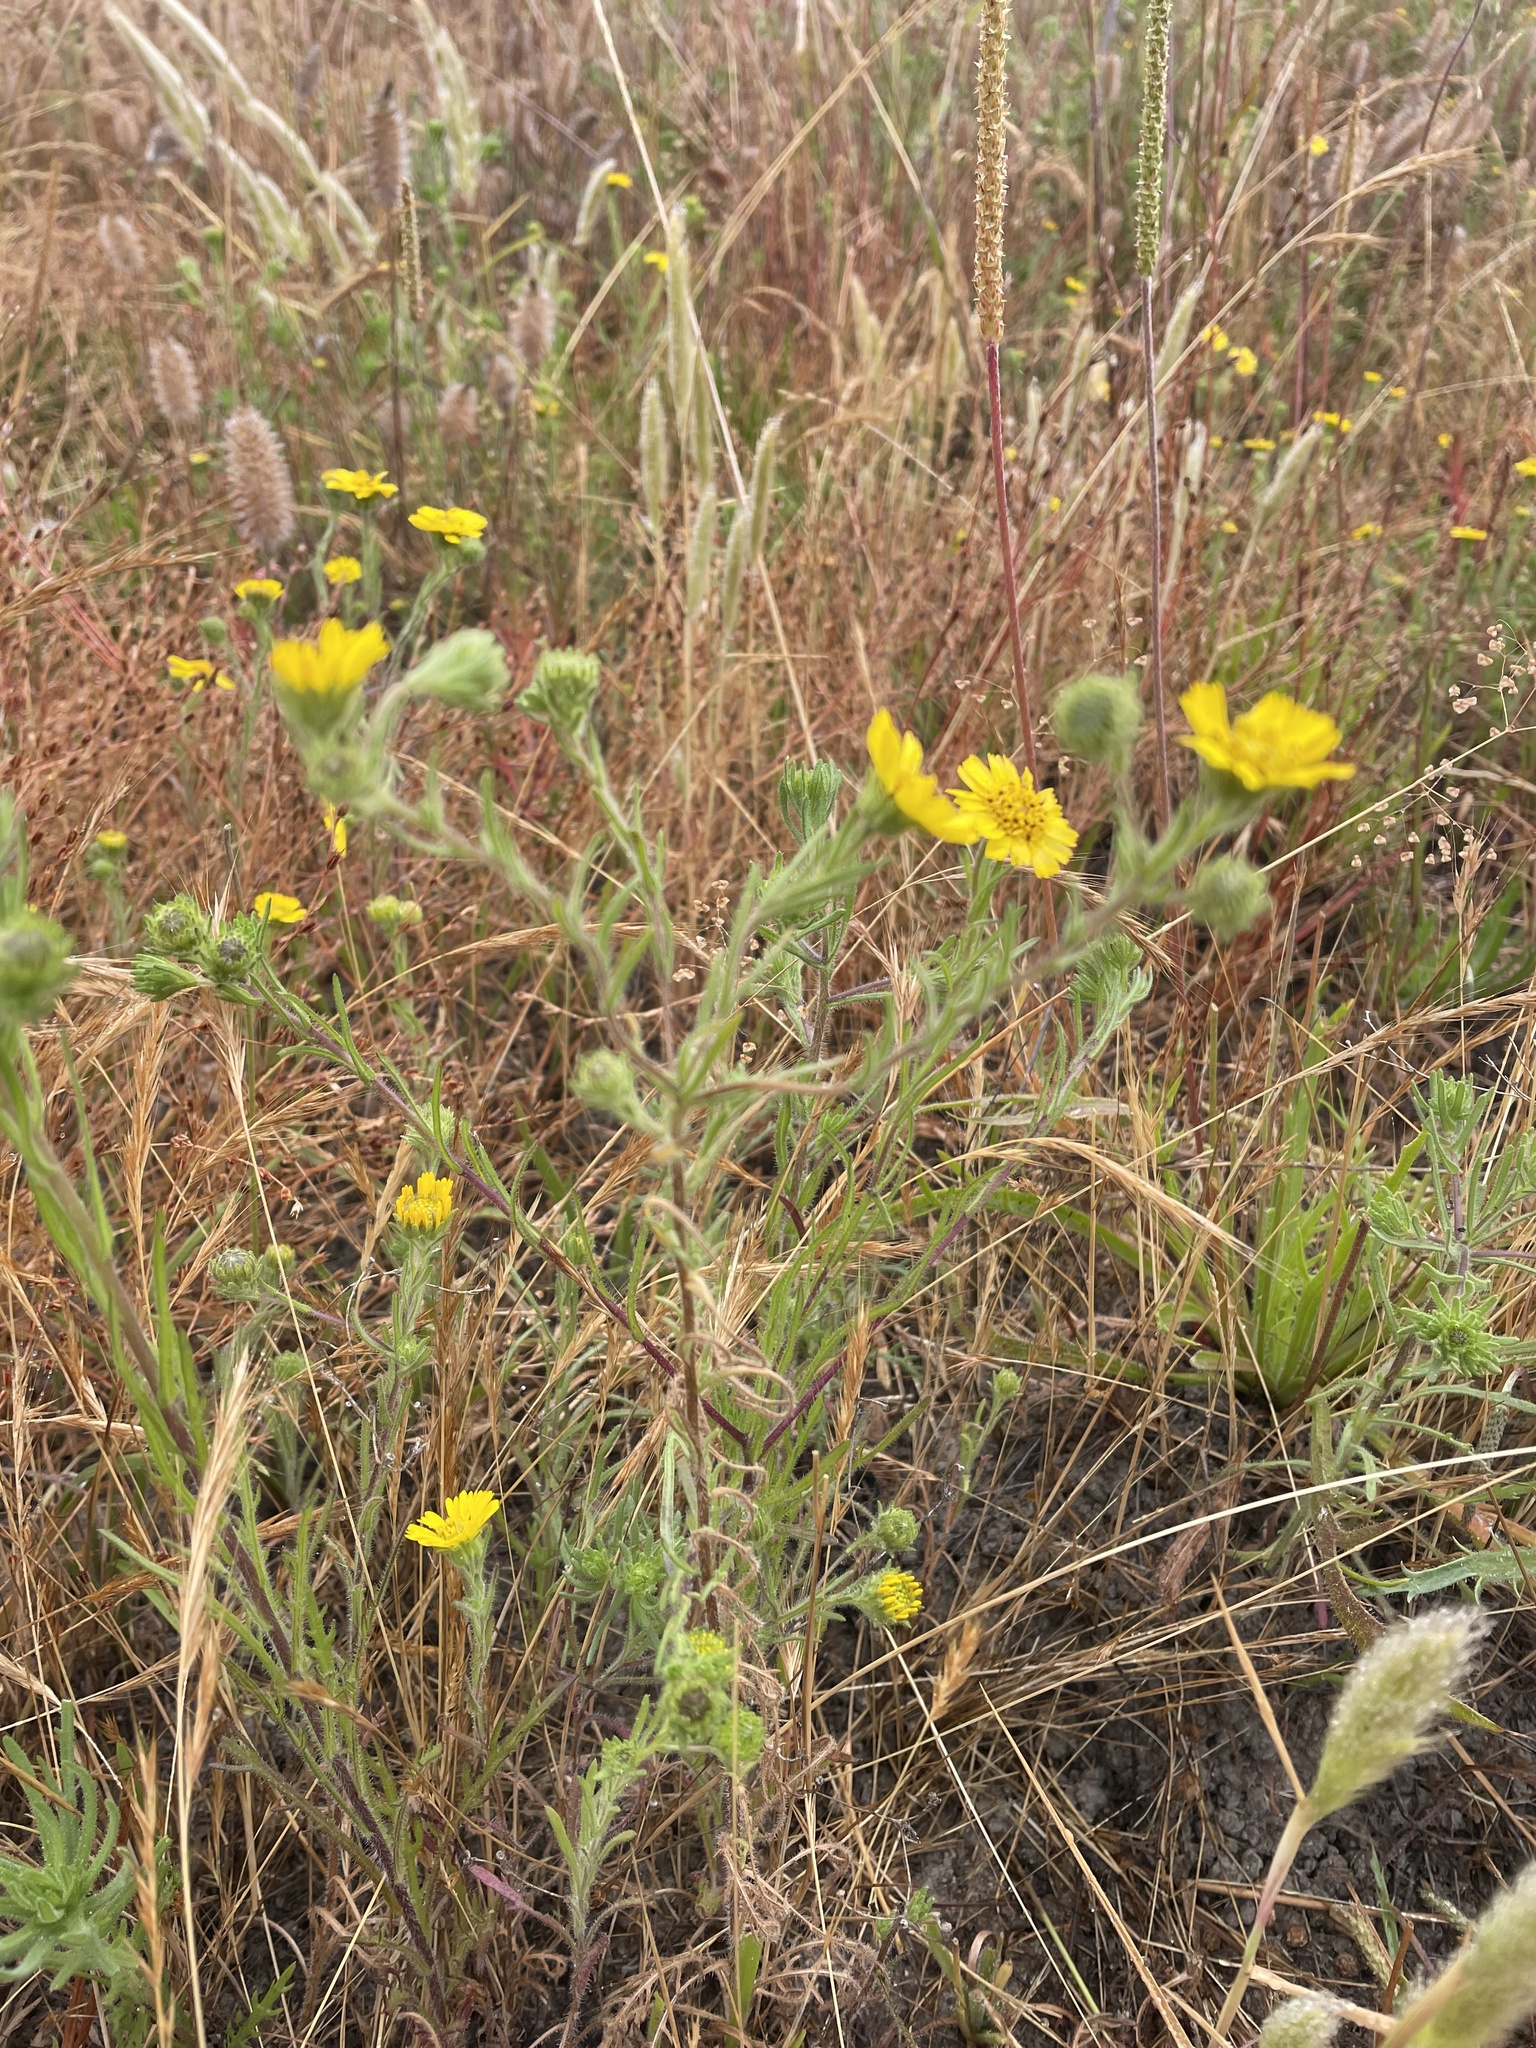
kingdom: Plantae
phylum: Tracheophyta
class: Magnoliopsida
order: Asterales
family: Asteraceae
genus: Deinandra
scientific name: Deinandra corymbosa
